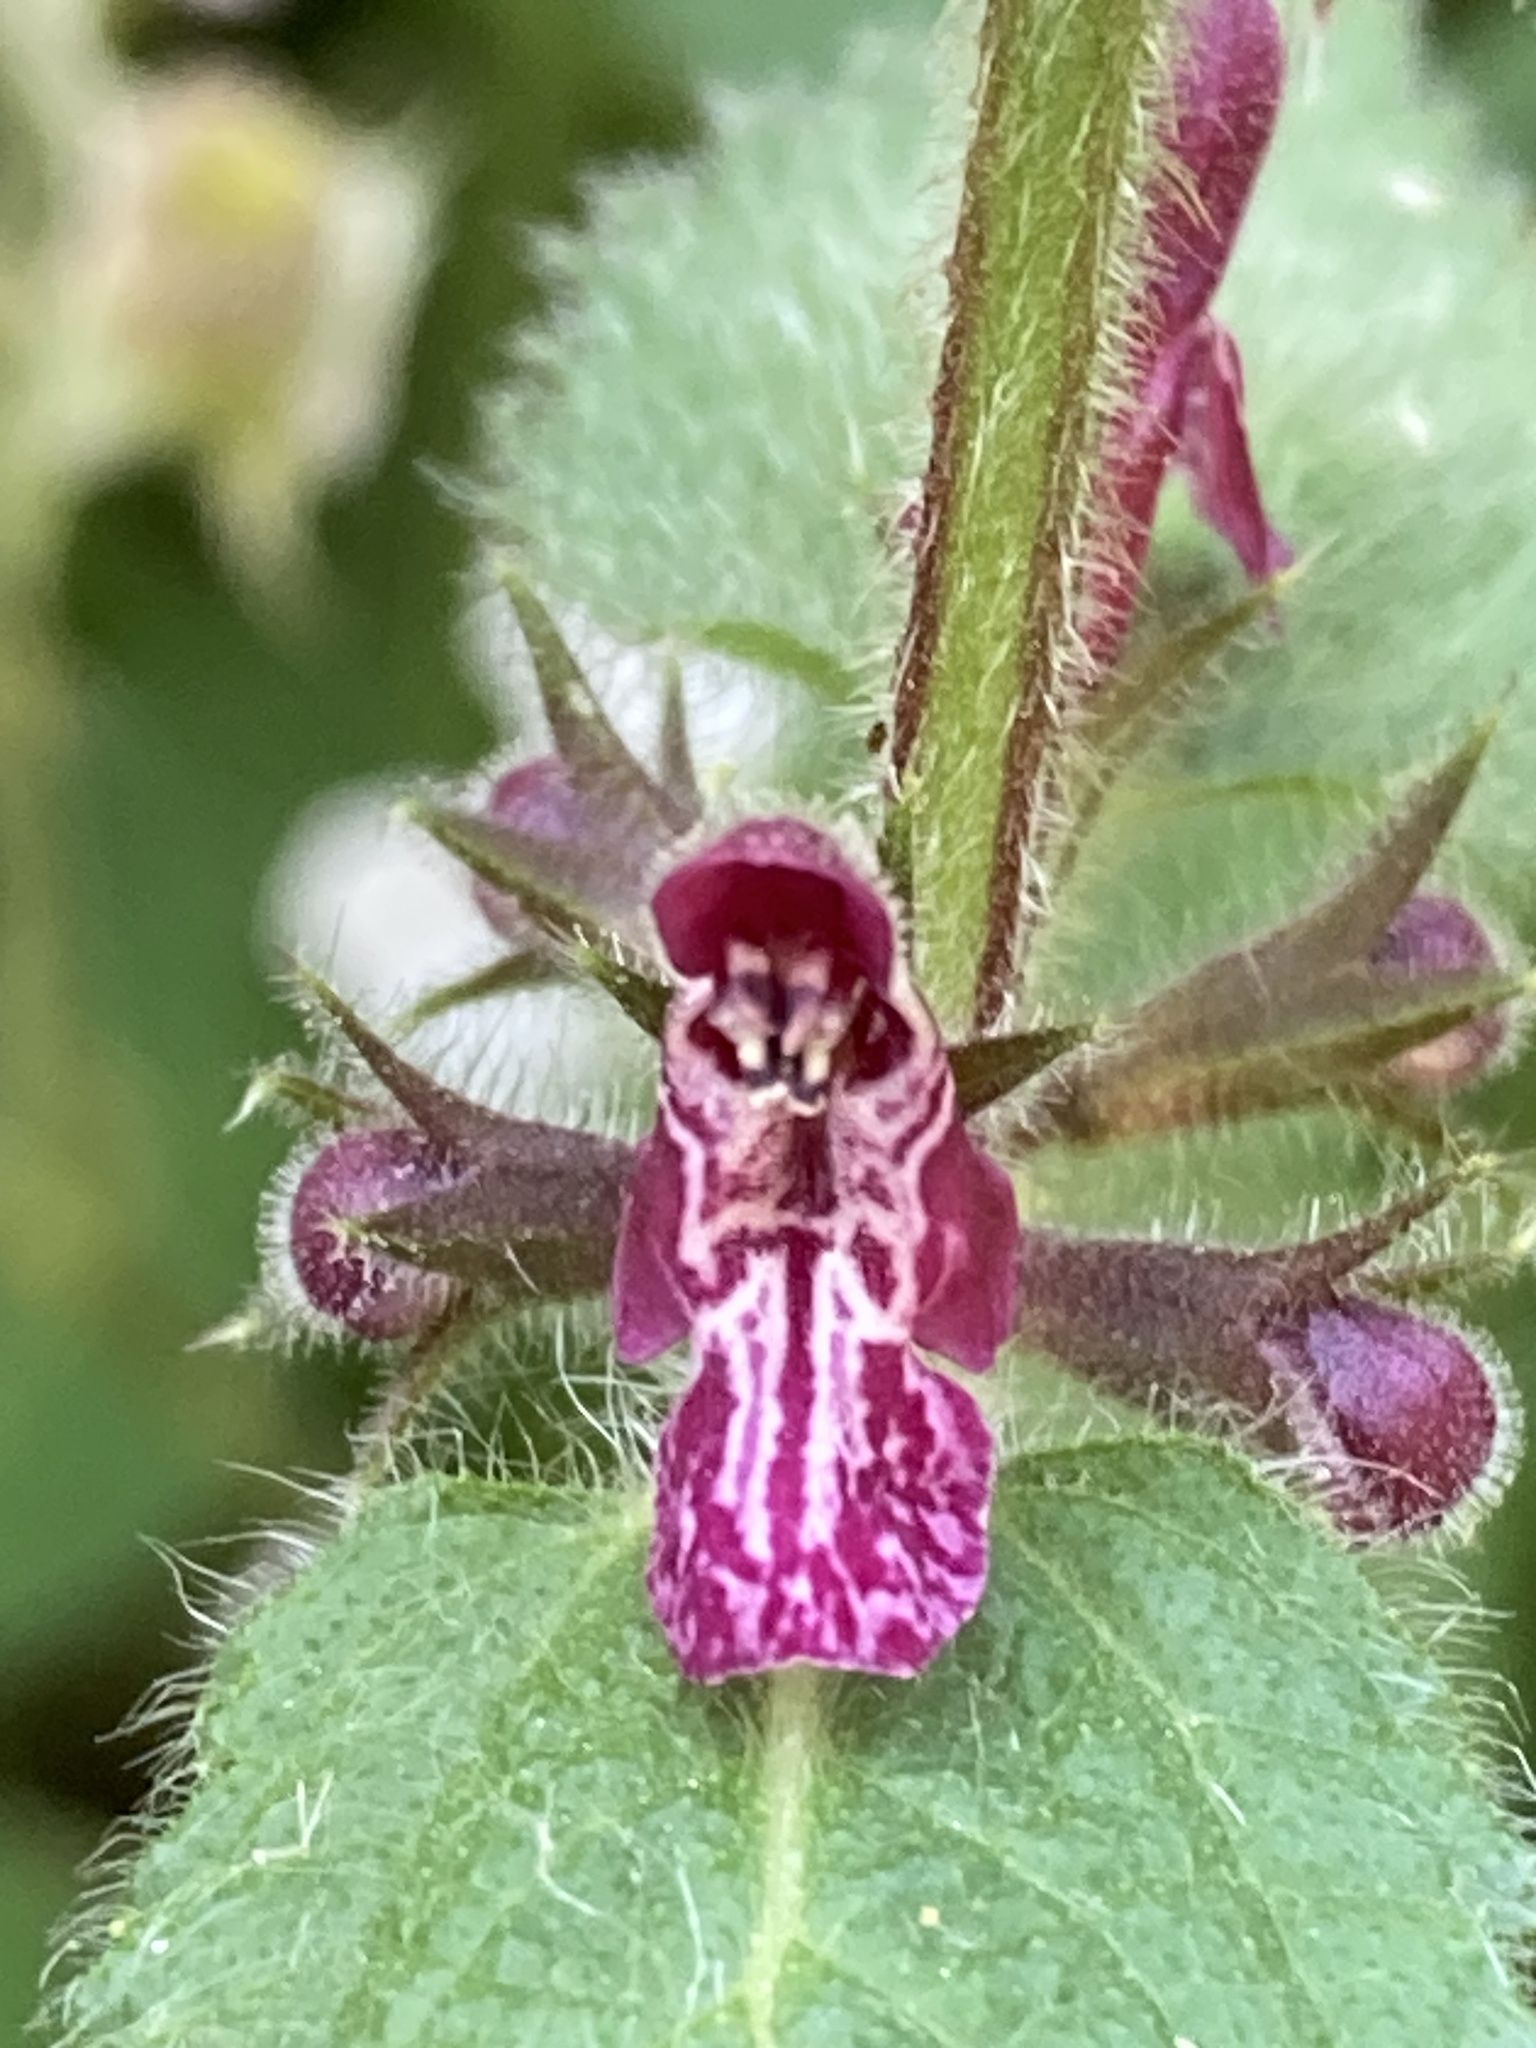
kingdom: Plantae
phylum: Tracheophyta
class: Magnoliopsida
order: Lamiales
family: Lamiaceae
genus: Stachys
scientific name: Stachys sylvatica
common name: Hedge woundwort
